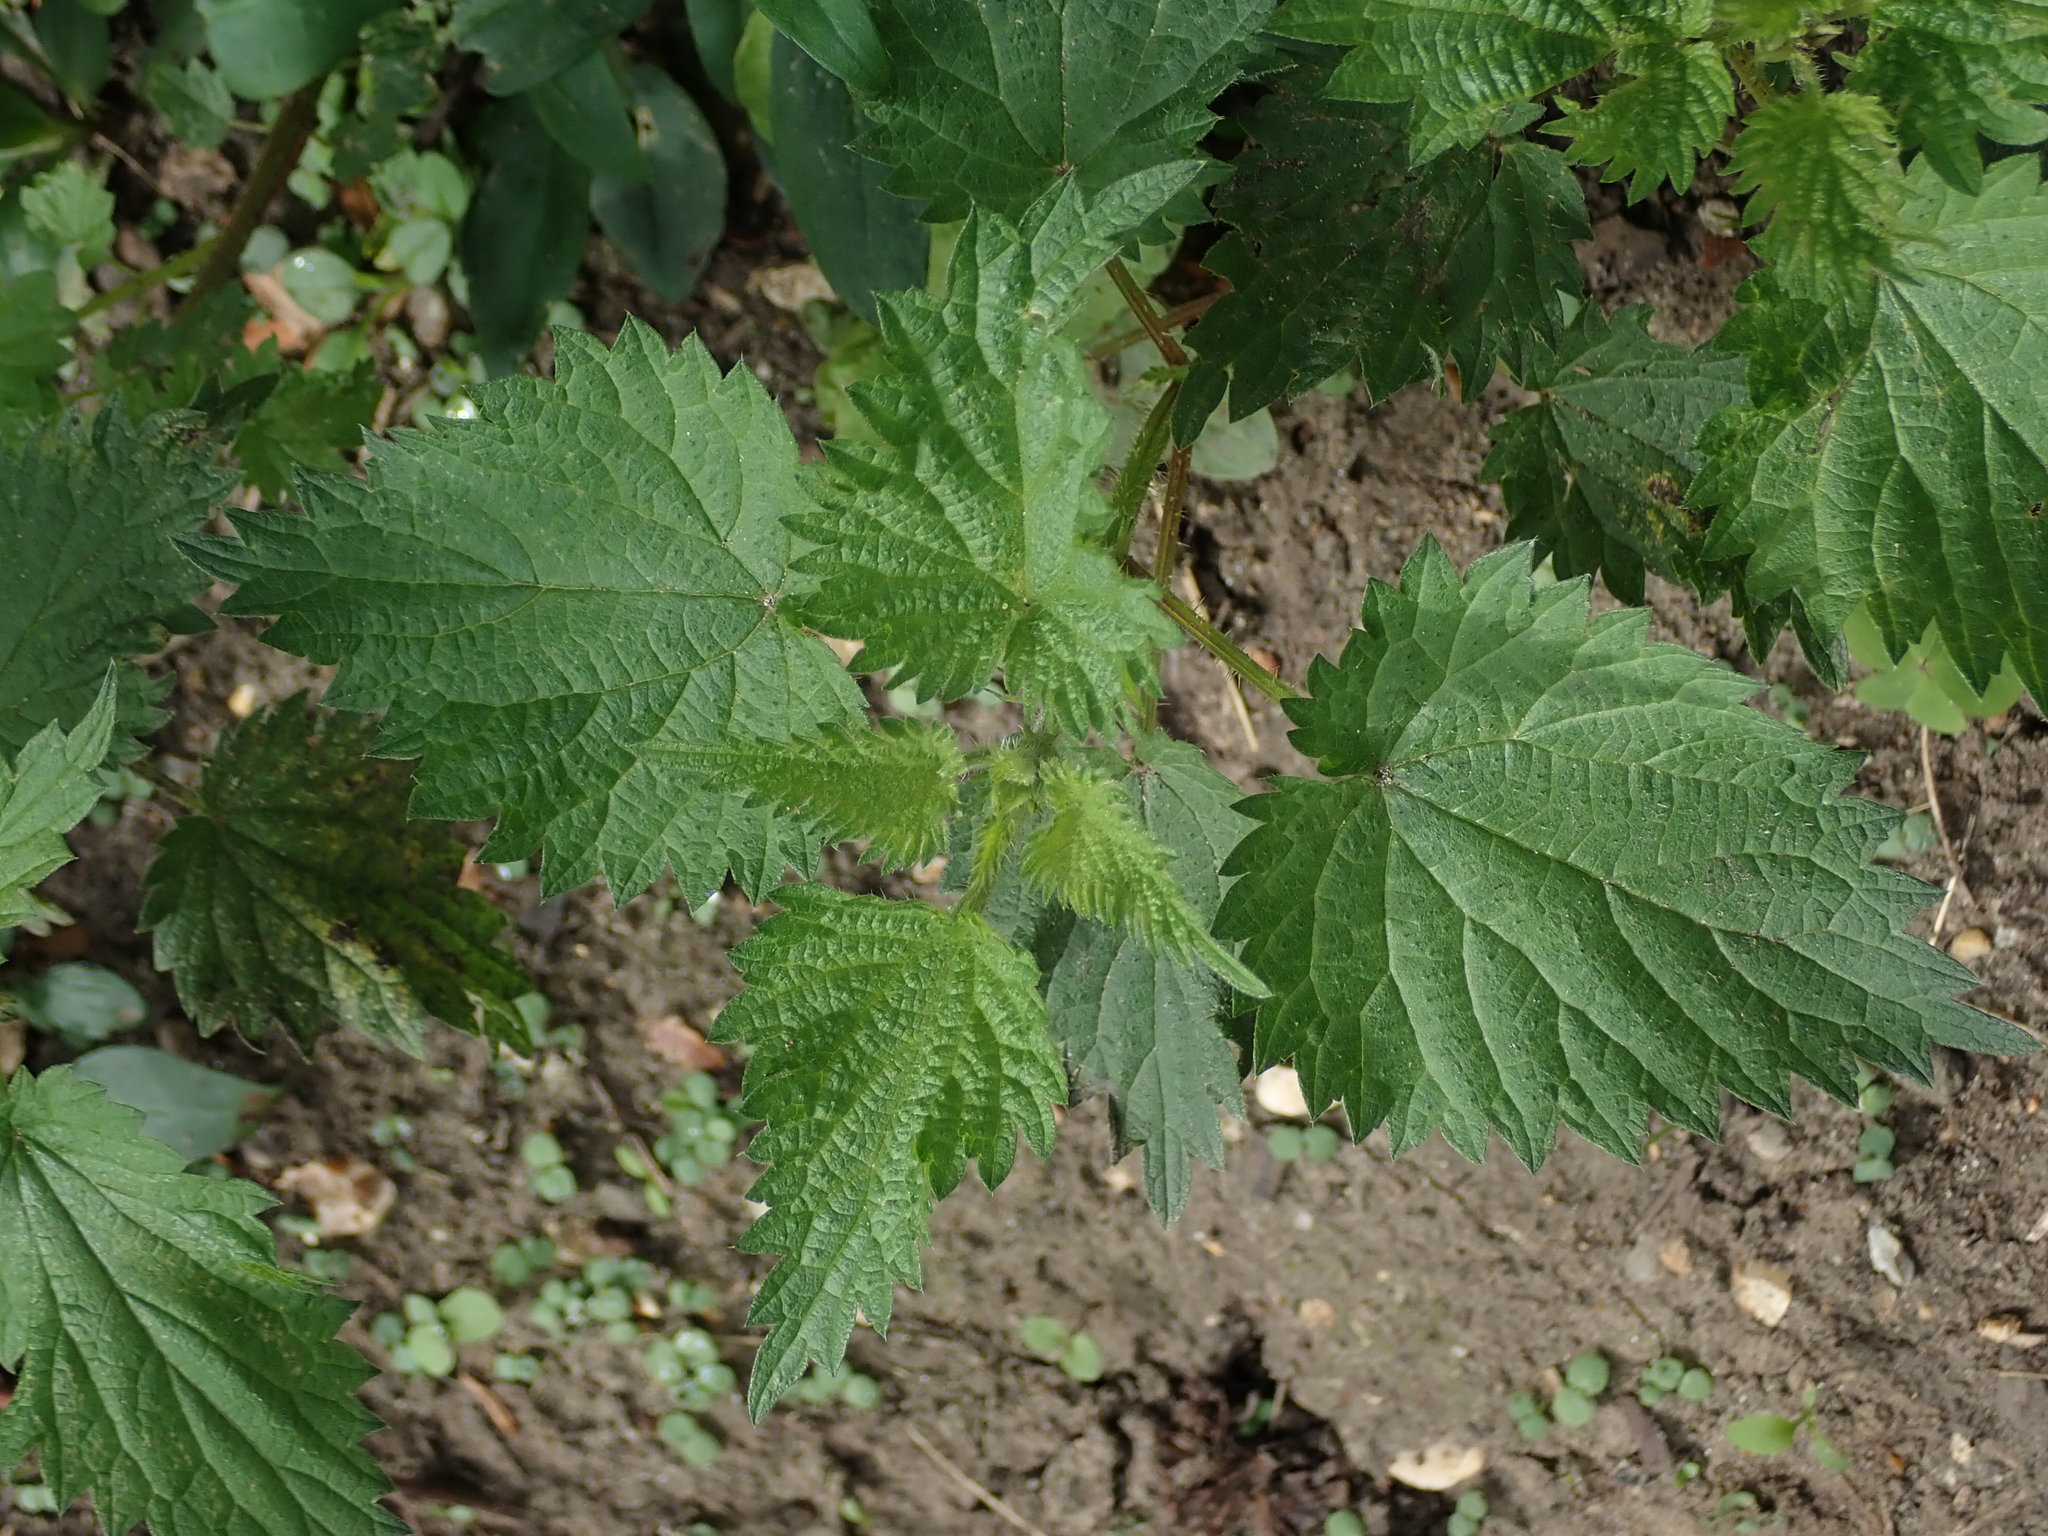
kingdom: Plantae
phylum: Tracheophyta
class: Magnoliopsida
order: Rosales
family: Urticaceae
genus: Urtica
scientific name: Urtica dioica
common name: Common nettle
